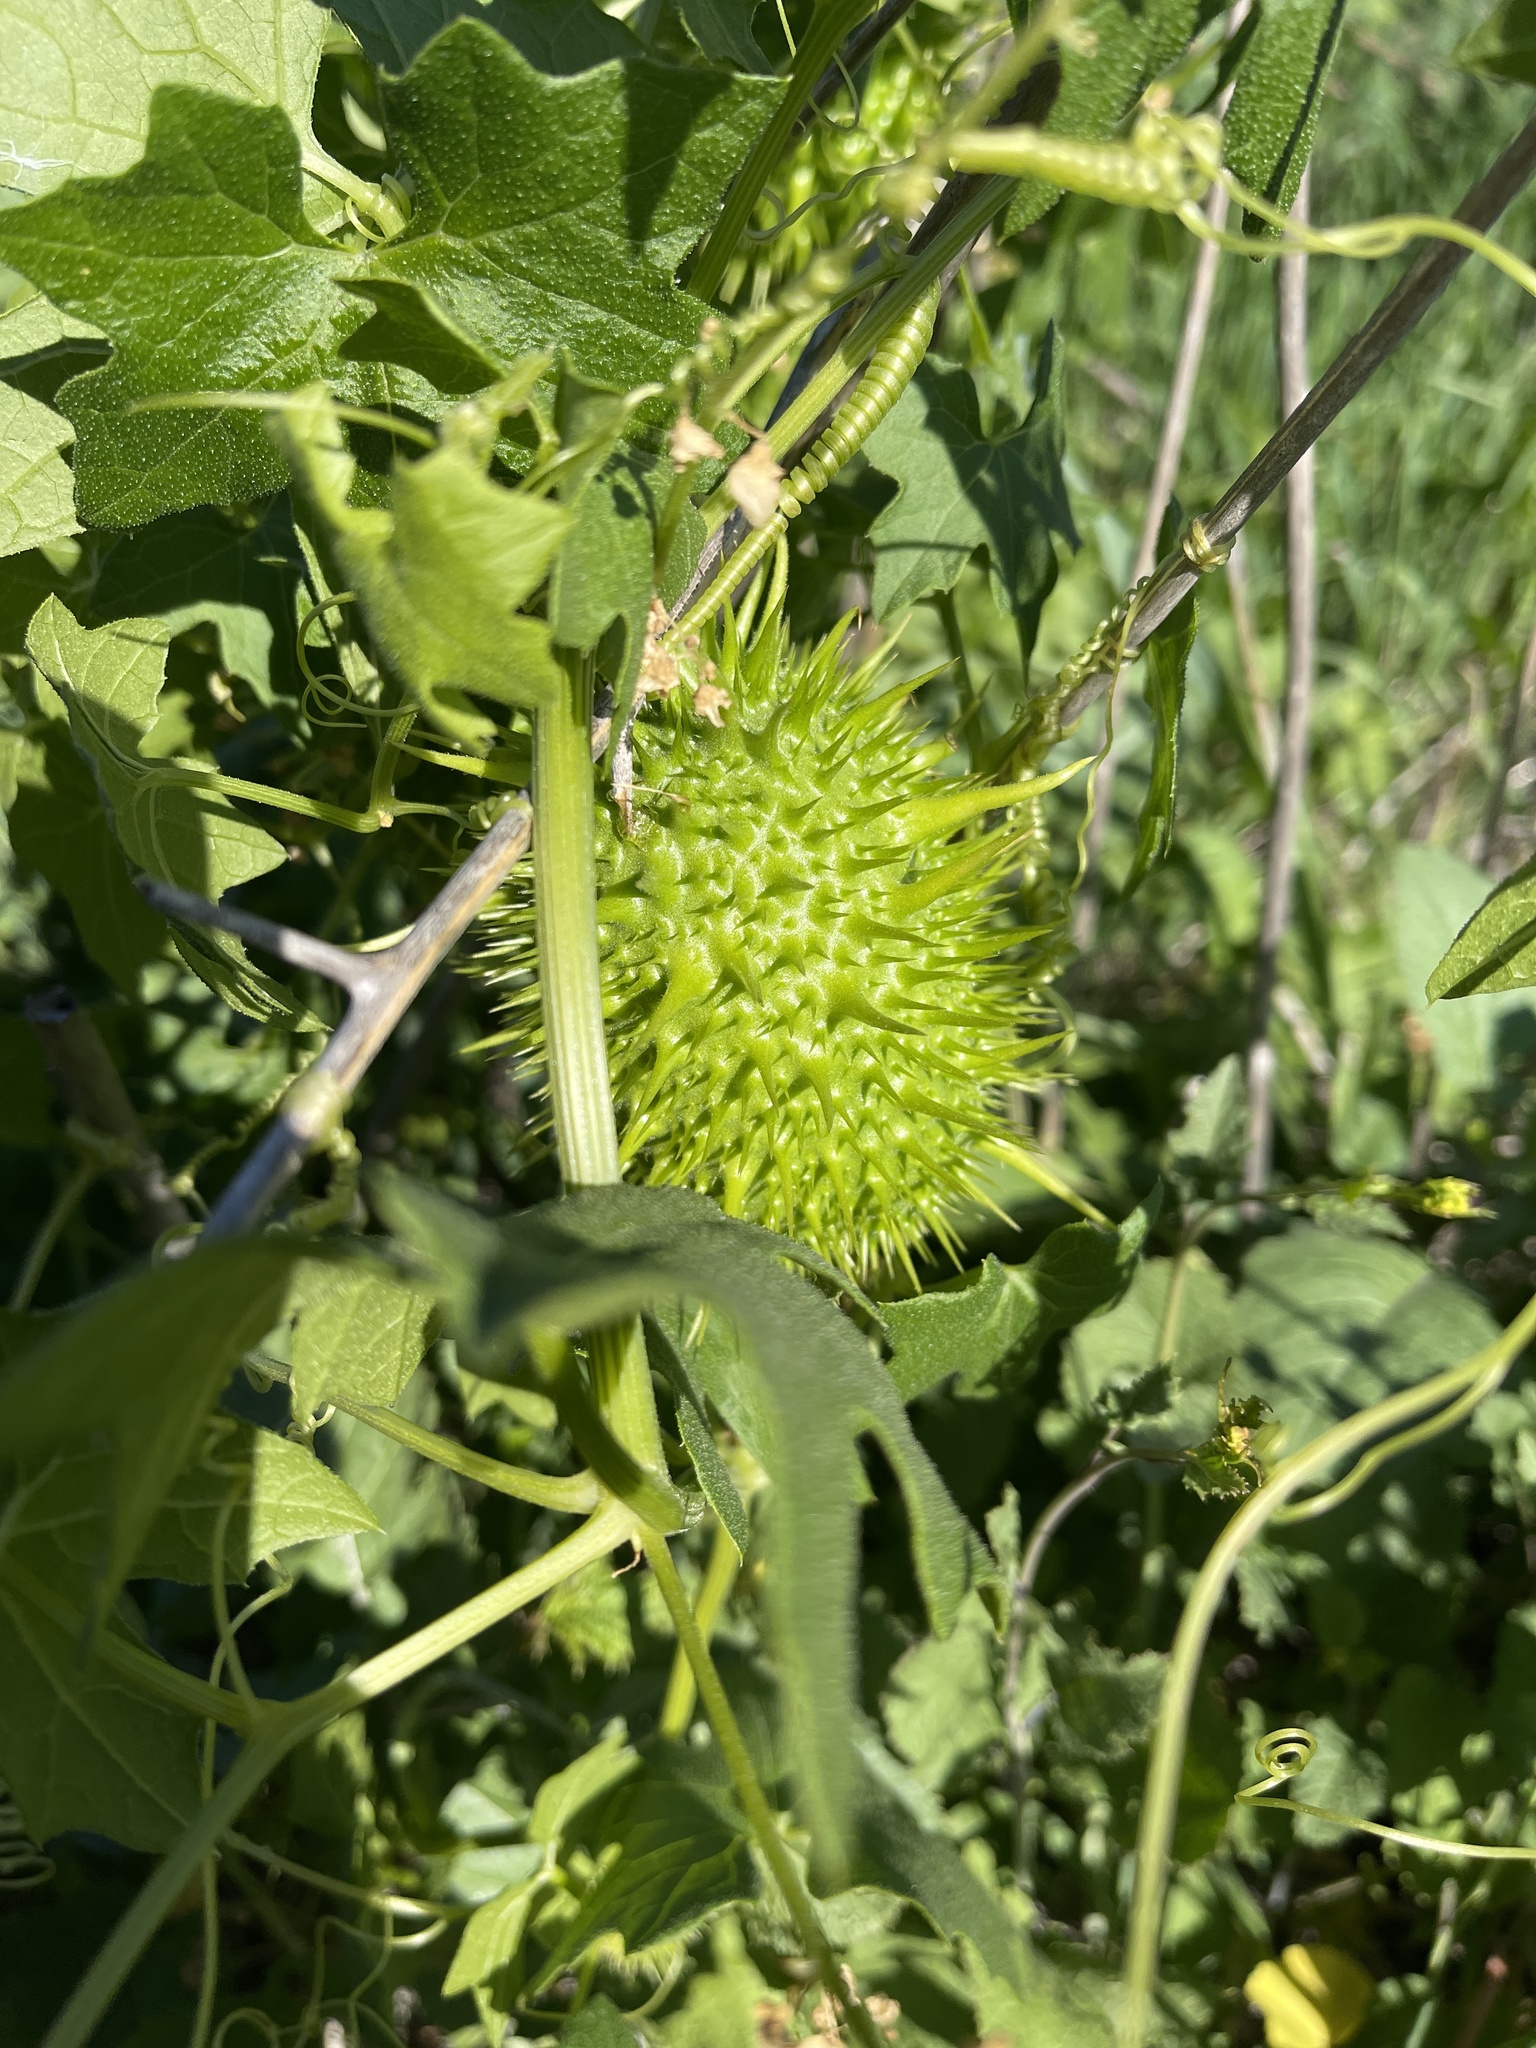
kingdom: Plantae
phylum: Tracheophyta
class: Magnoliopsida
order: Cucurbitales
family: Cucurbitaceae
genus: Marah
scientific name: Marah macrocarpa
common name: Cucamonga manroot
